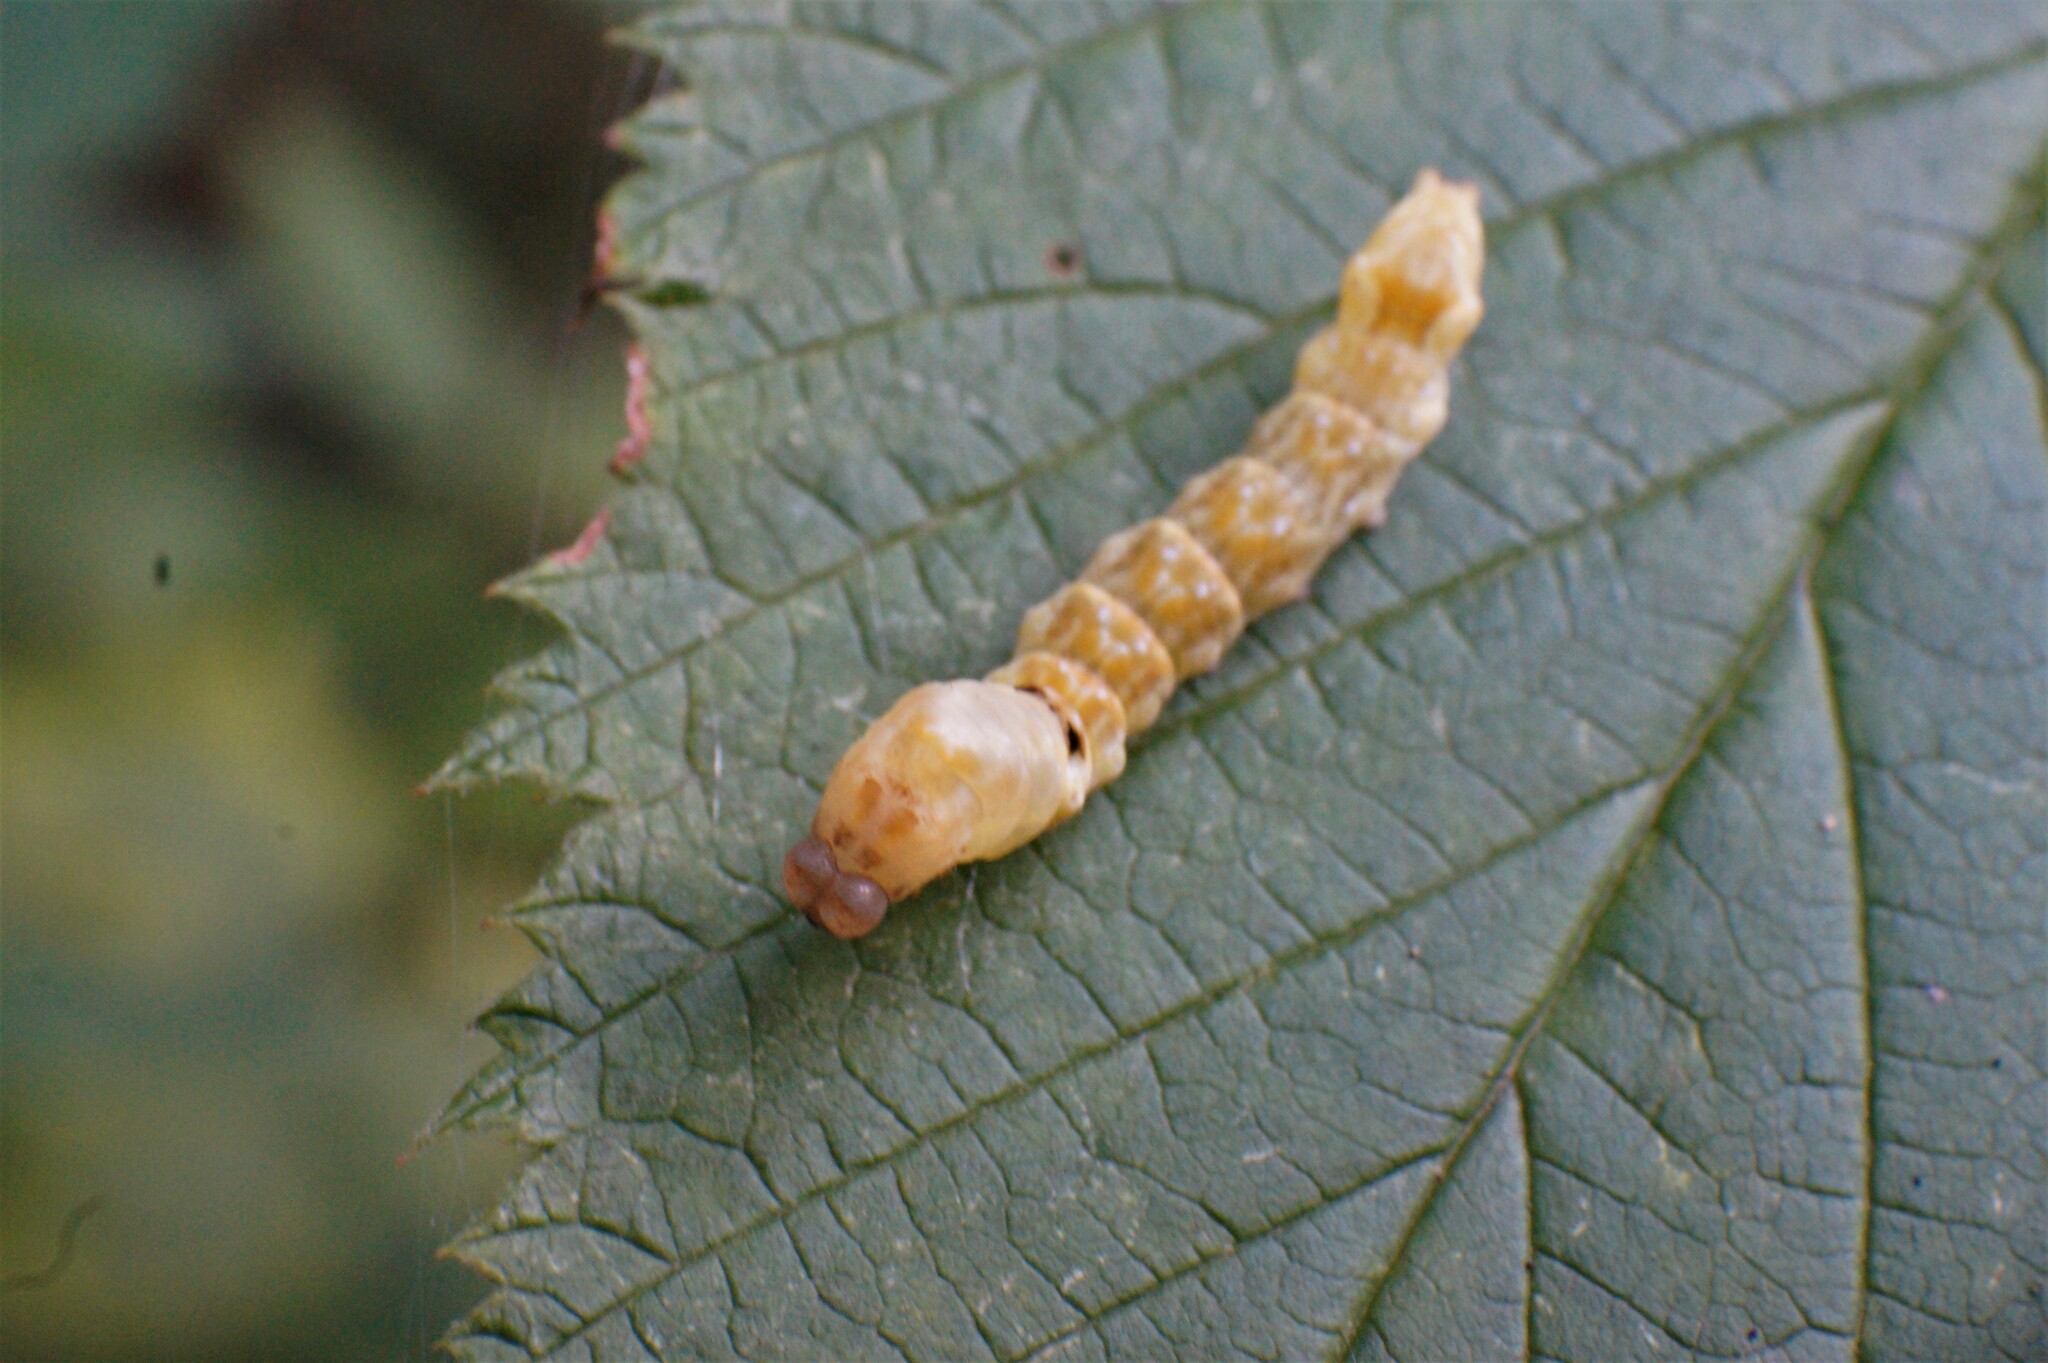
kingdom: Animalia
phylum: Arthropoda
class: Insecta
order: Lepidoptera
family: Drepanidae
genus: Thyatira
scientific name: Thyatira batis
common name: Peach blossom
